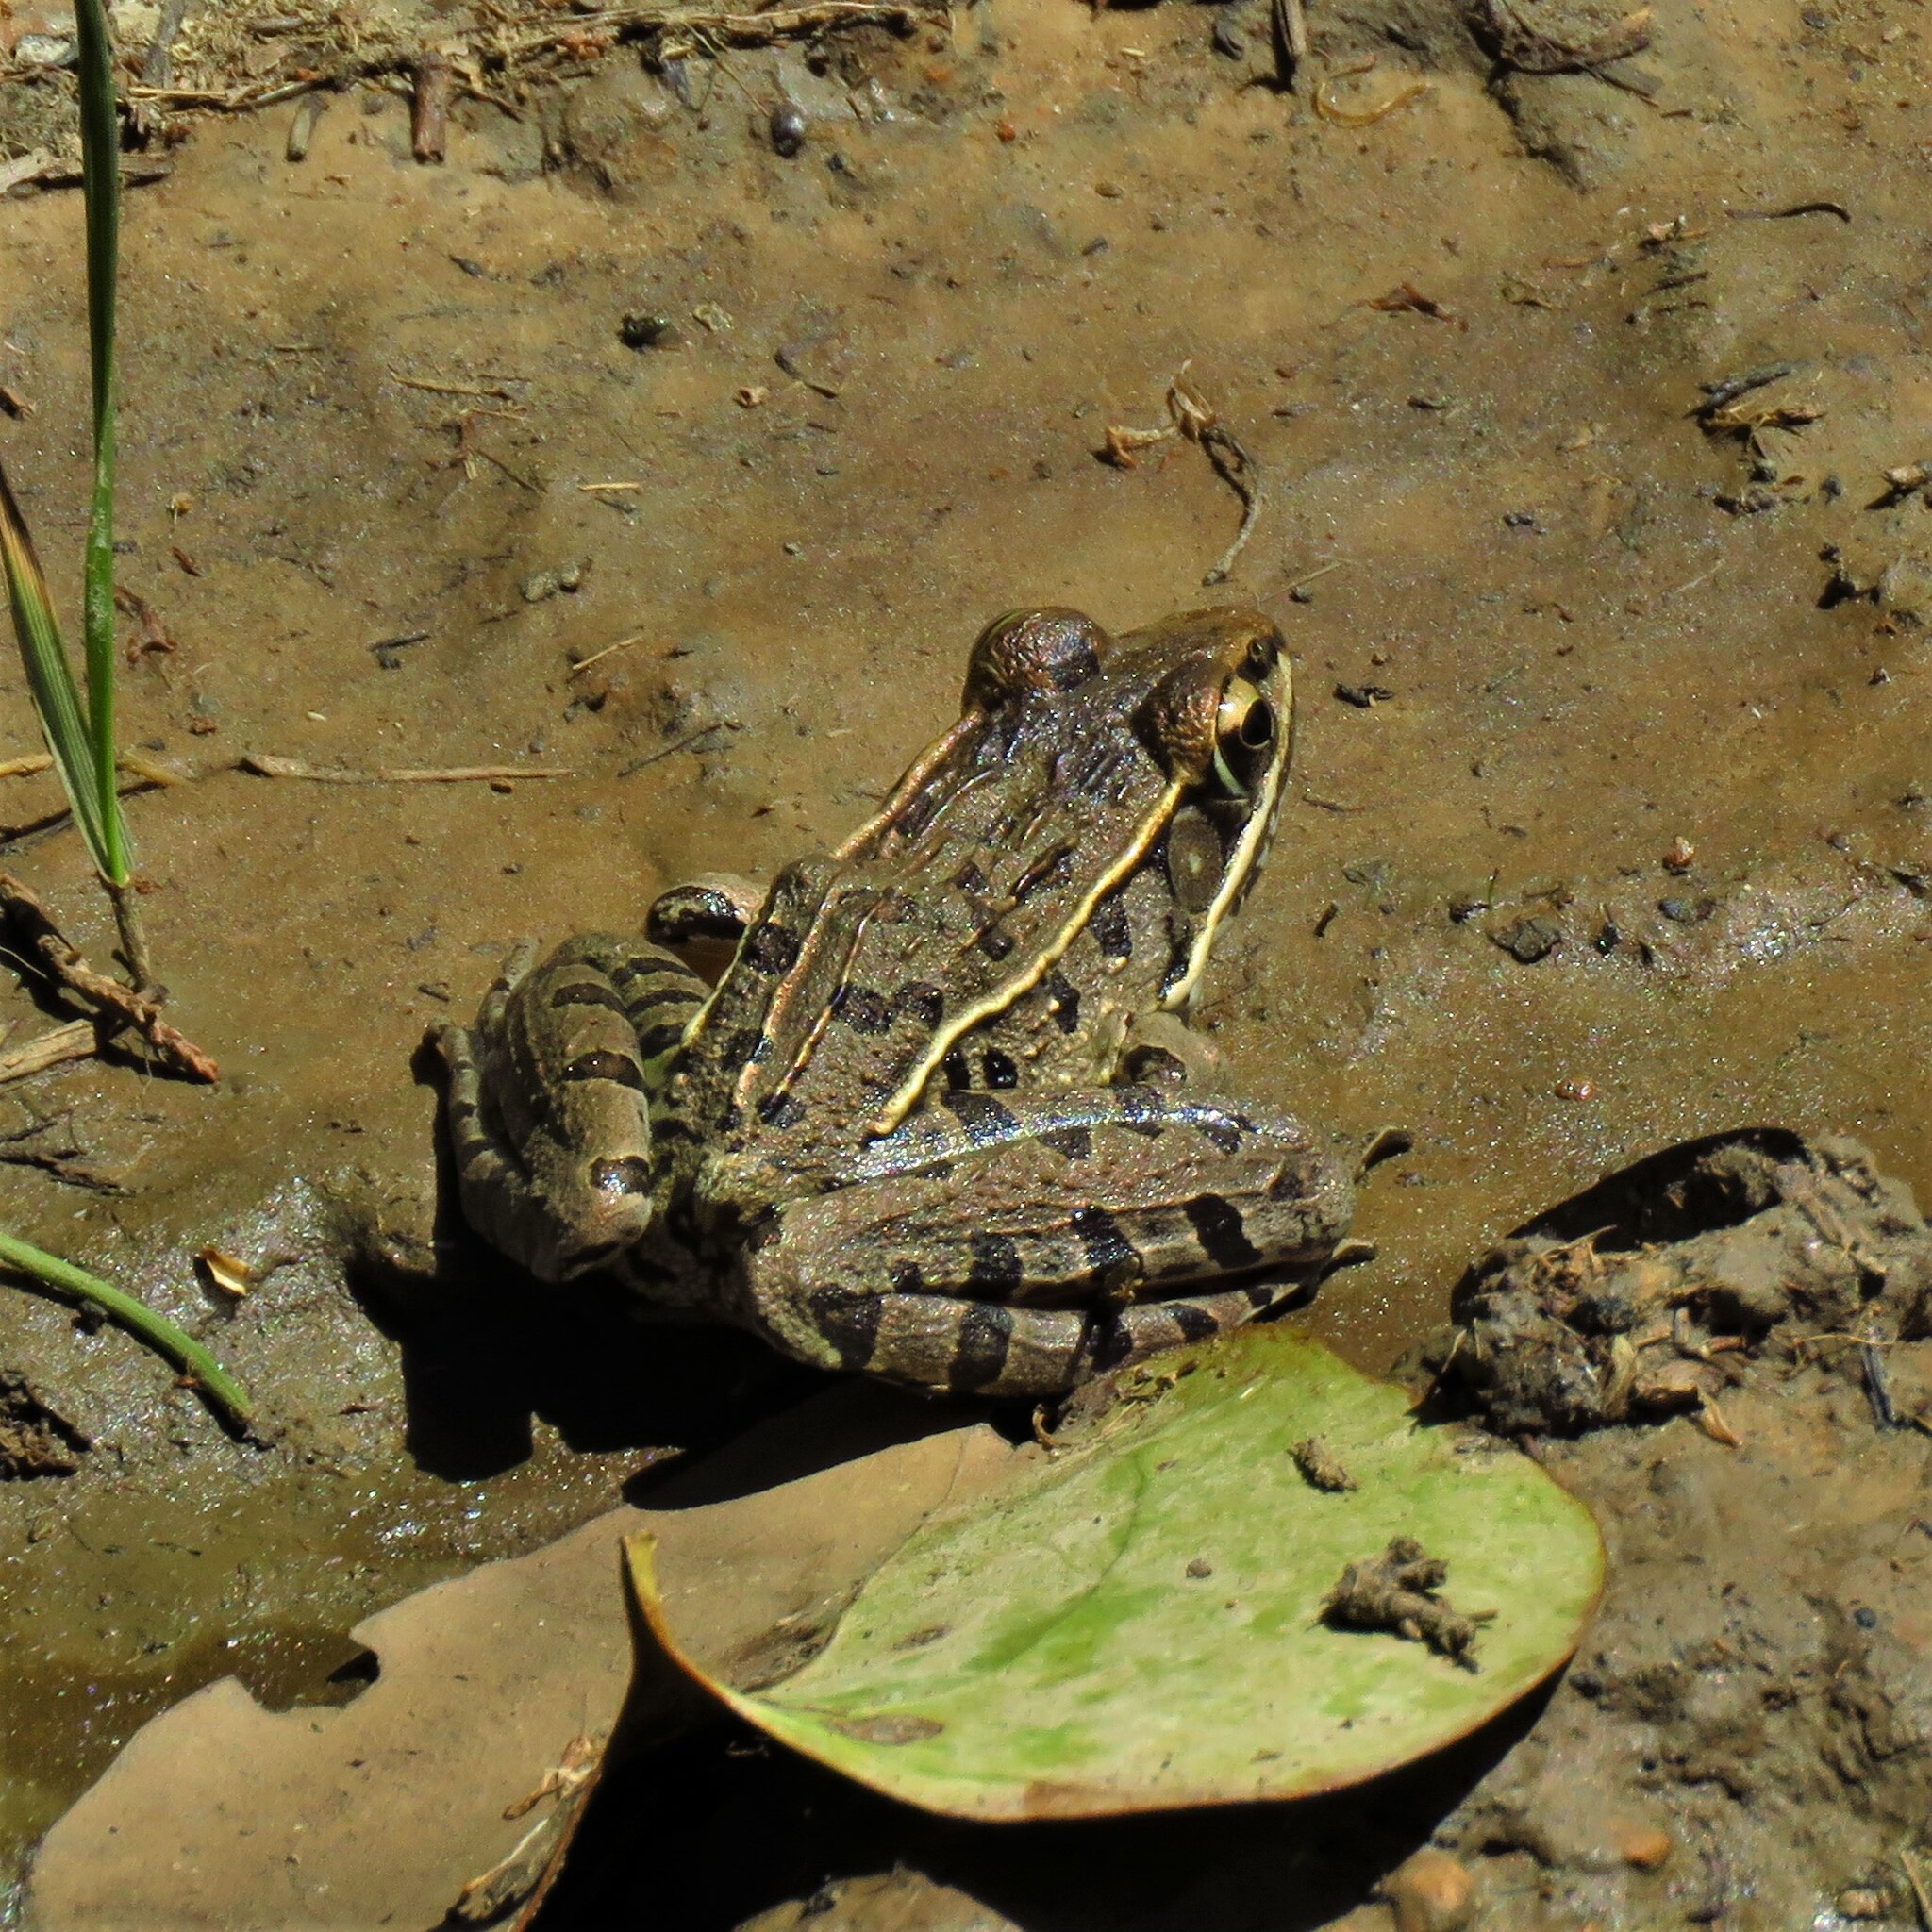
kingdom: Animalia
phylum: Chordata
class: Amphibia
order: Anura
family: Ranidae
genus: Lithobates
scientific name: Lithobates sphenocephalus
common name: Southern leopard frog
